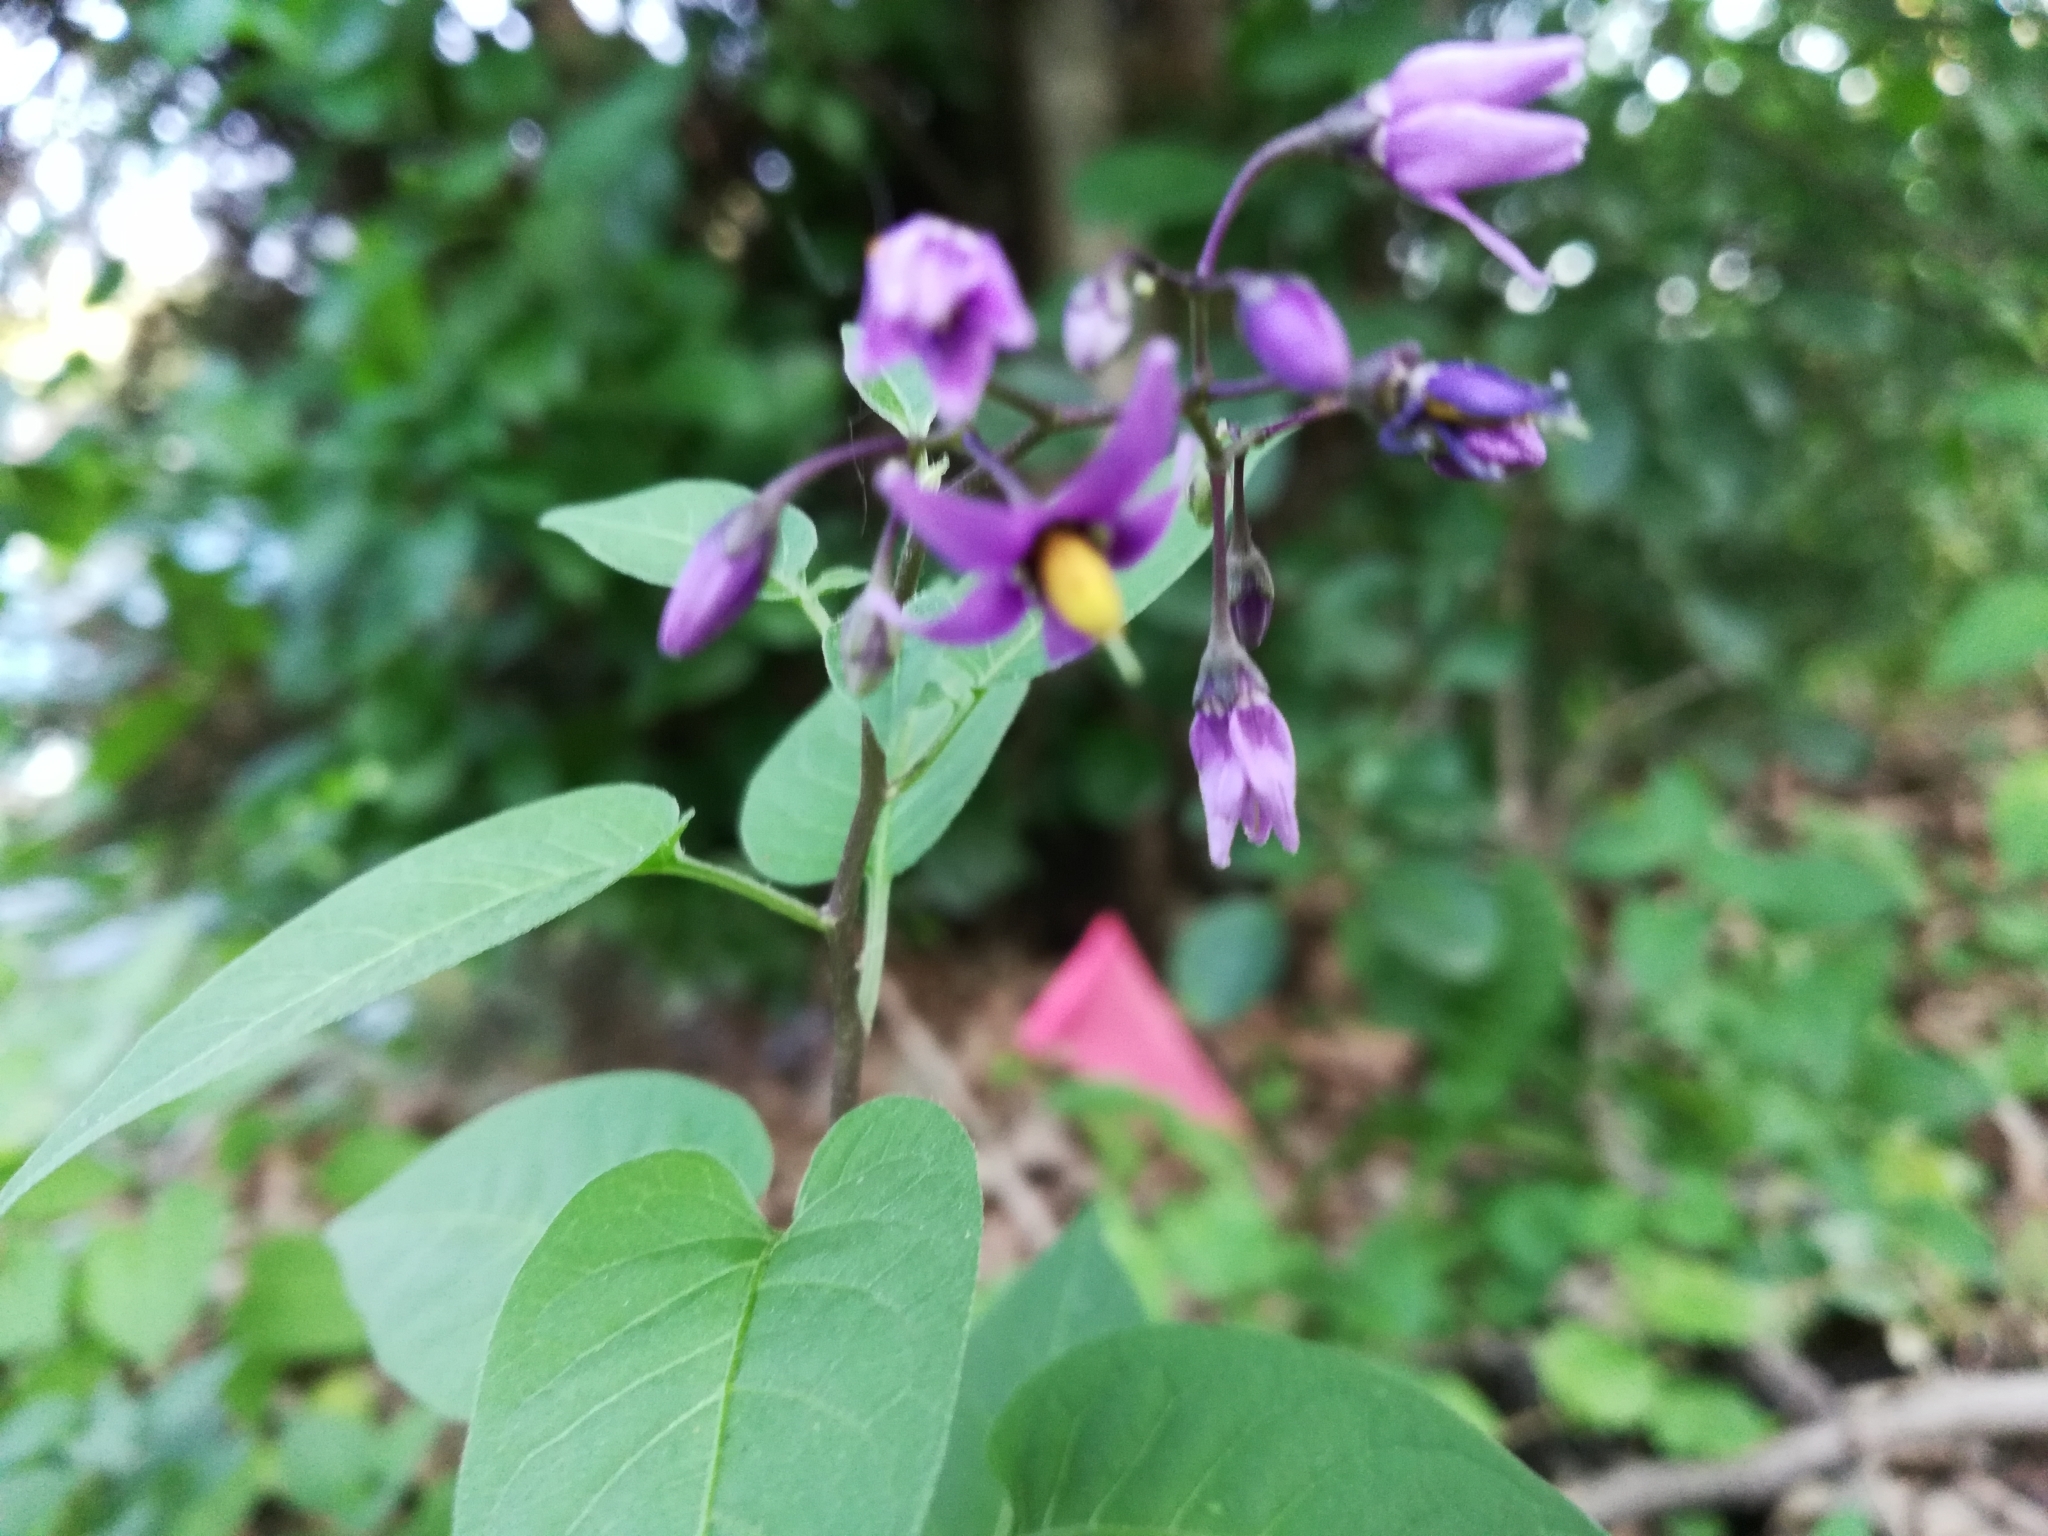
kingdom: Plantae
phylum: Tracheophyta
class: Magnoliopsida
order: Solanales
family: Solanaceae
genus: Solanum
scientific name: Solanum dulcamara
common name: Climbing nightshade
